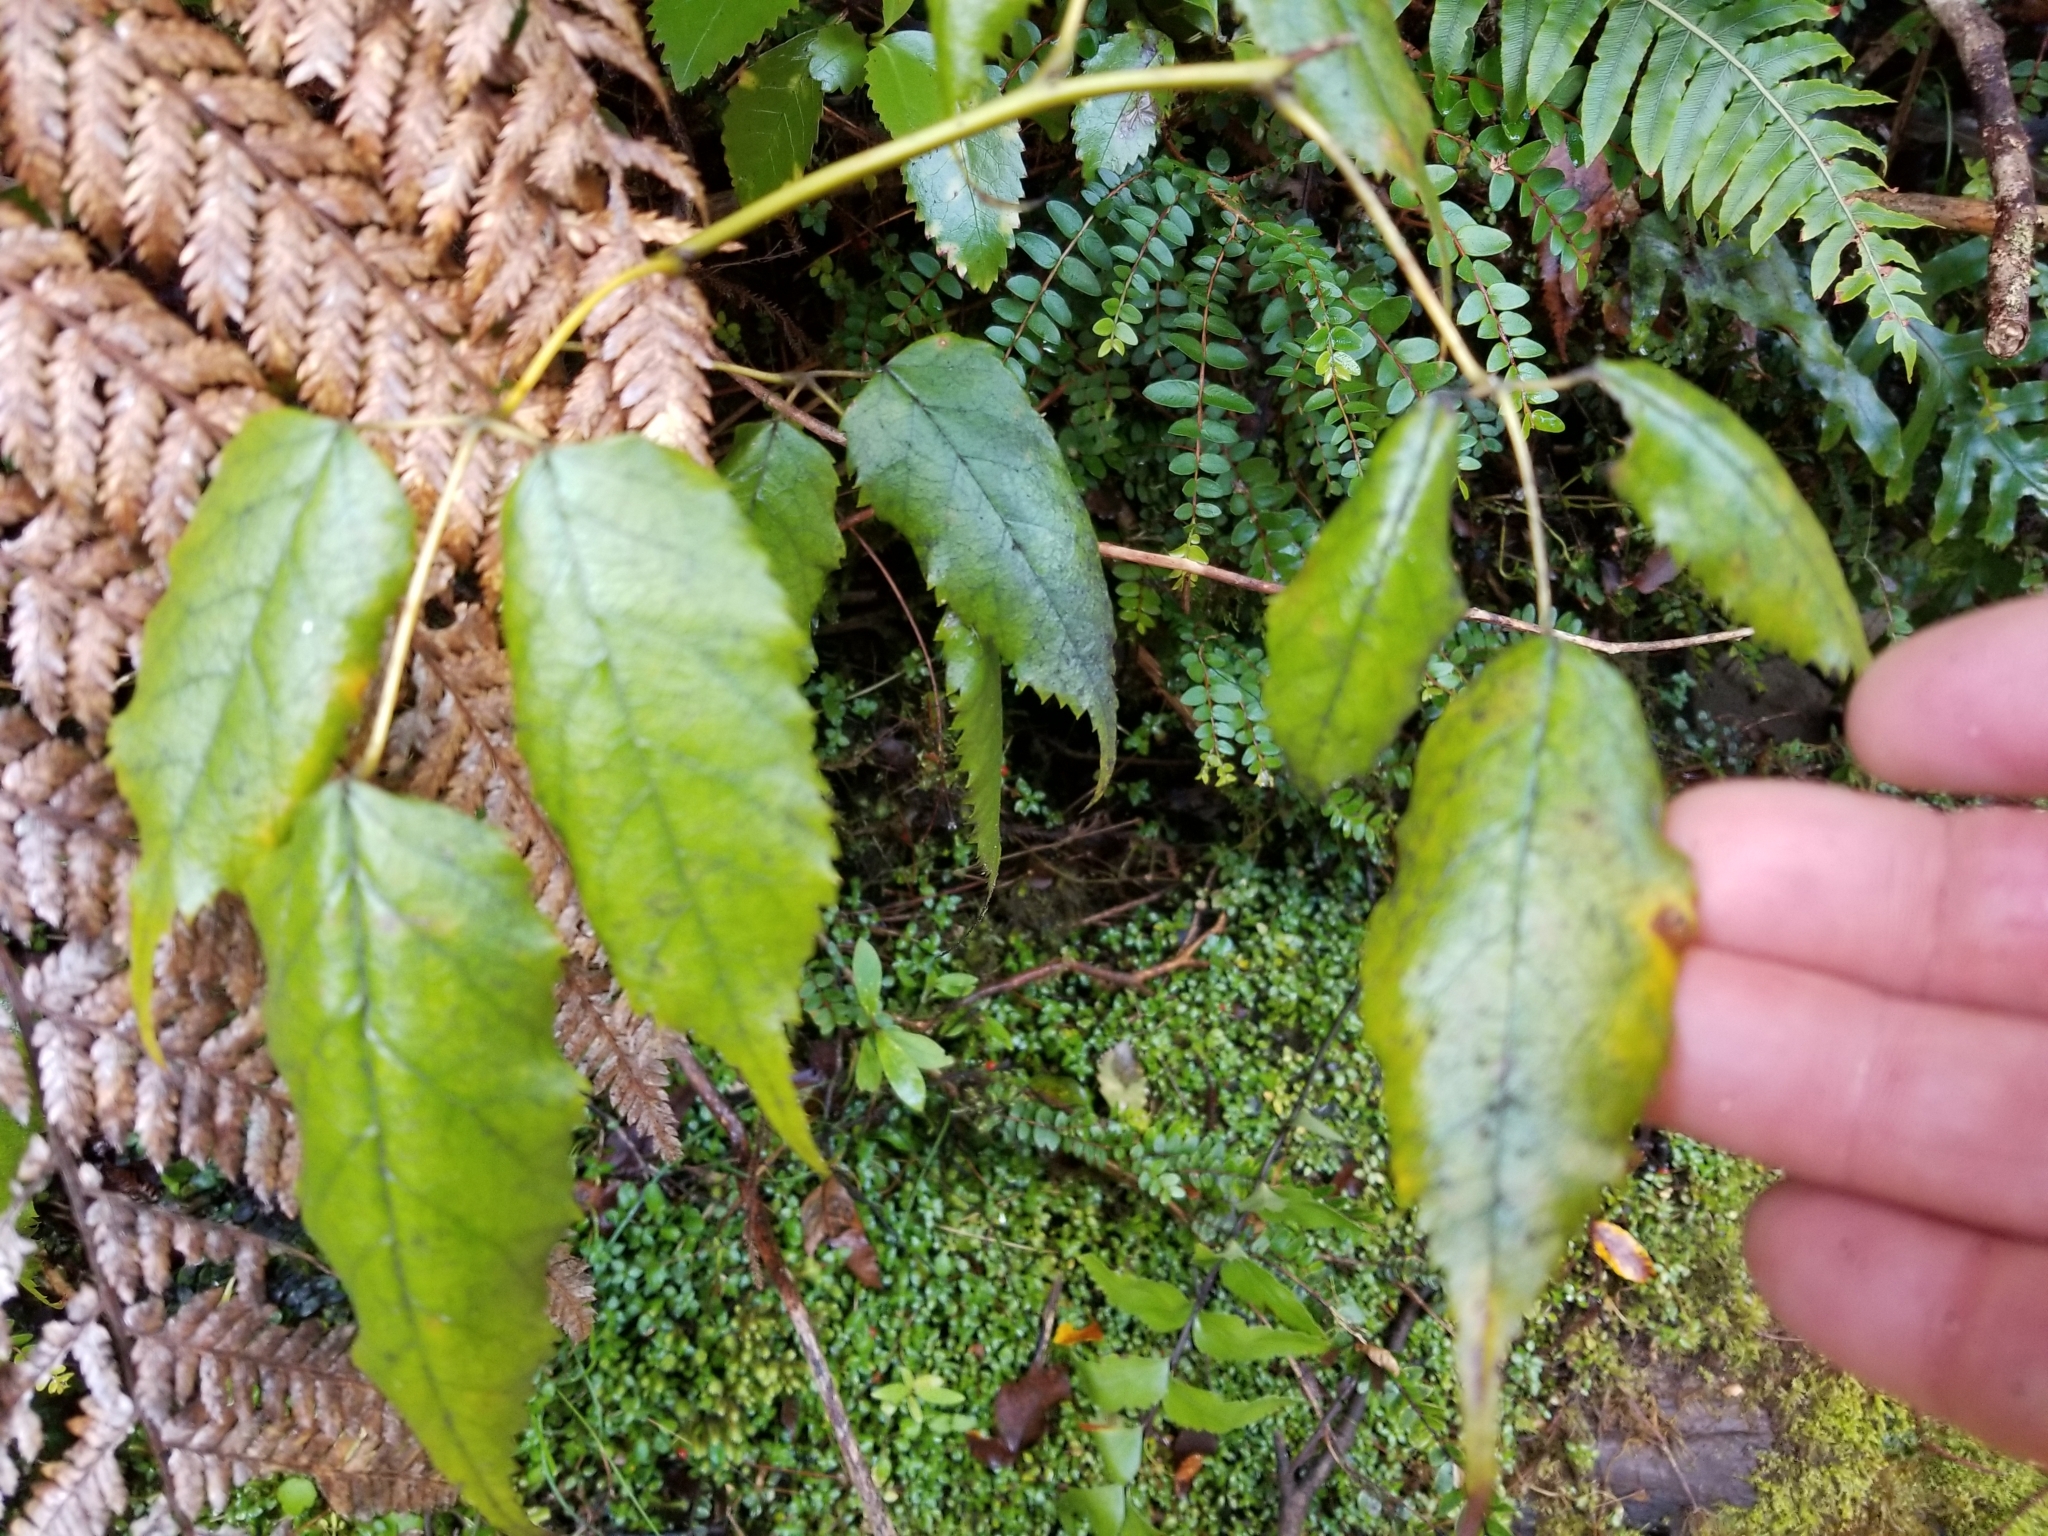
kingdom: Plantae
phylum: Tracheophyta
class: Magnoliopsida
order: Rosales
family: Rosaceae
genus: Rubus
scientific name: Rubus cissoides
